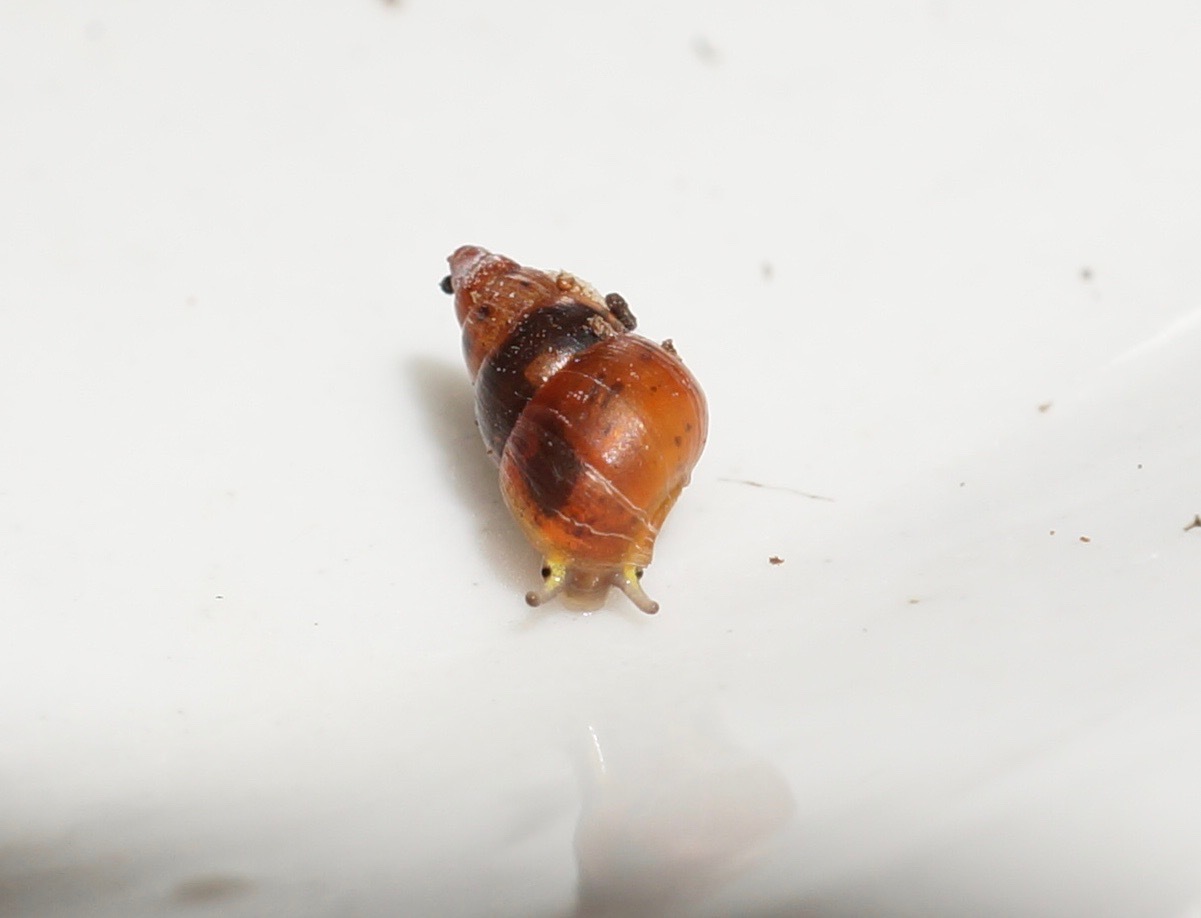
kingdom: Animalia
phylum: Mollusca
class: Gastropoda
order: Littorinimorpha
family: Assimineidae
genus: Telmosena
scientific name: Telmosena suteri
